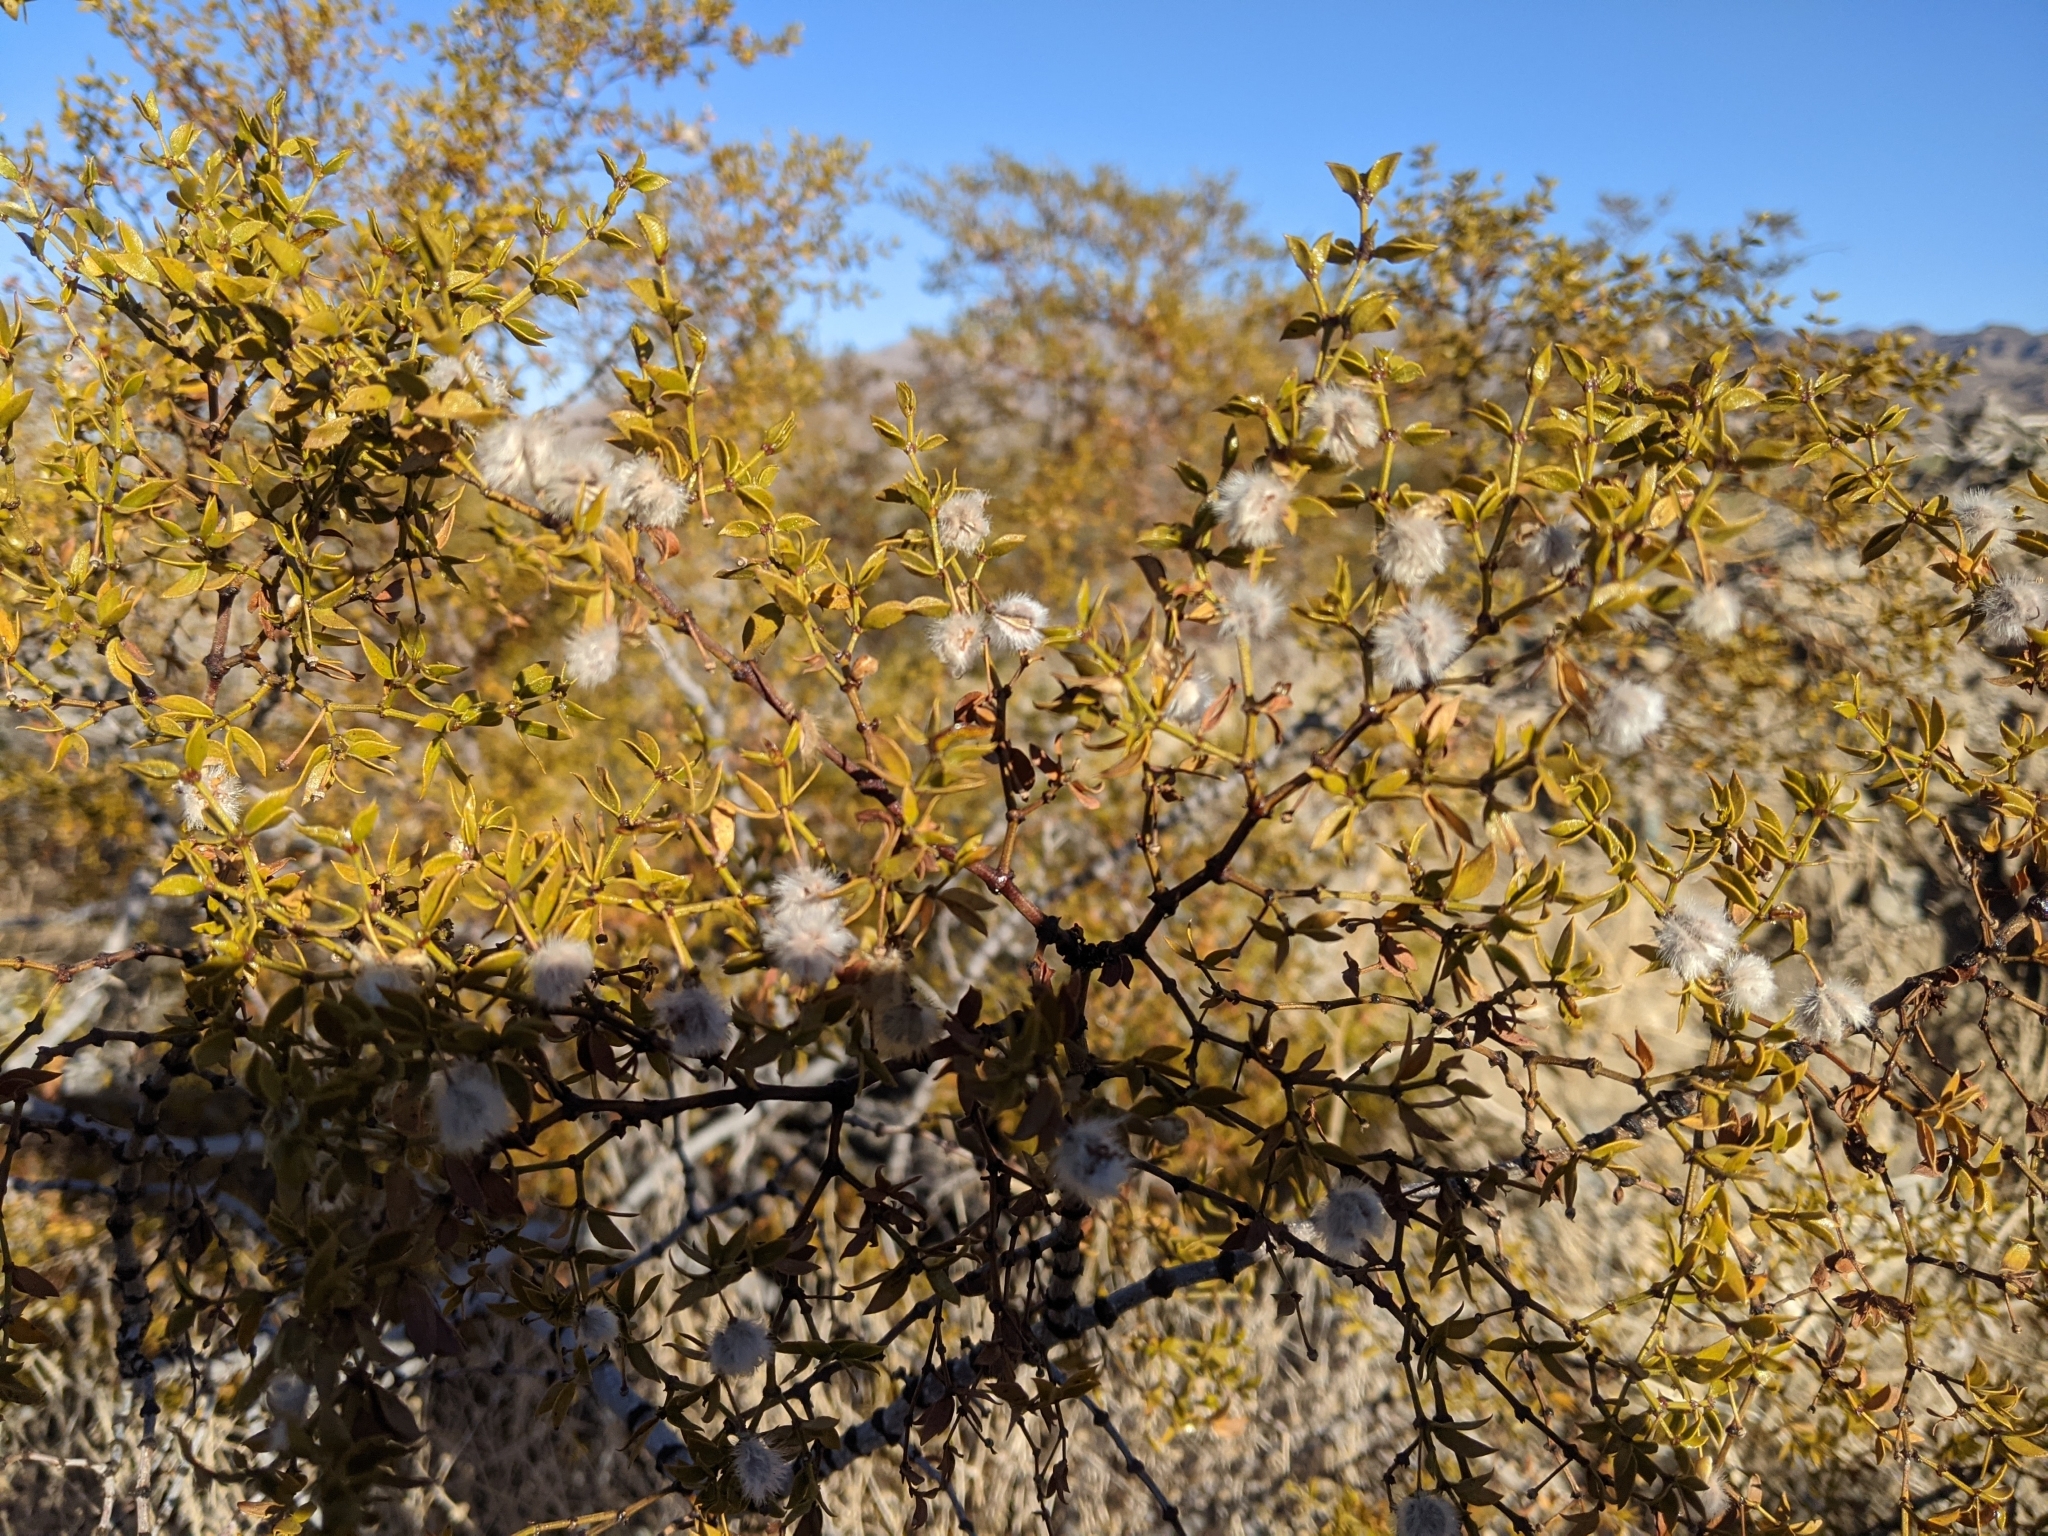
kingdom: Plantae
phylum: Tracheophyta
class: Magnoliopsida
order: Zygophyllales
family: Zygophyllaceae
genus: Larrea
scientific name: Larrea tridentata
